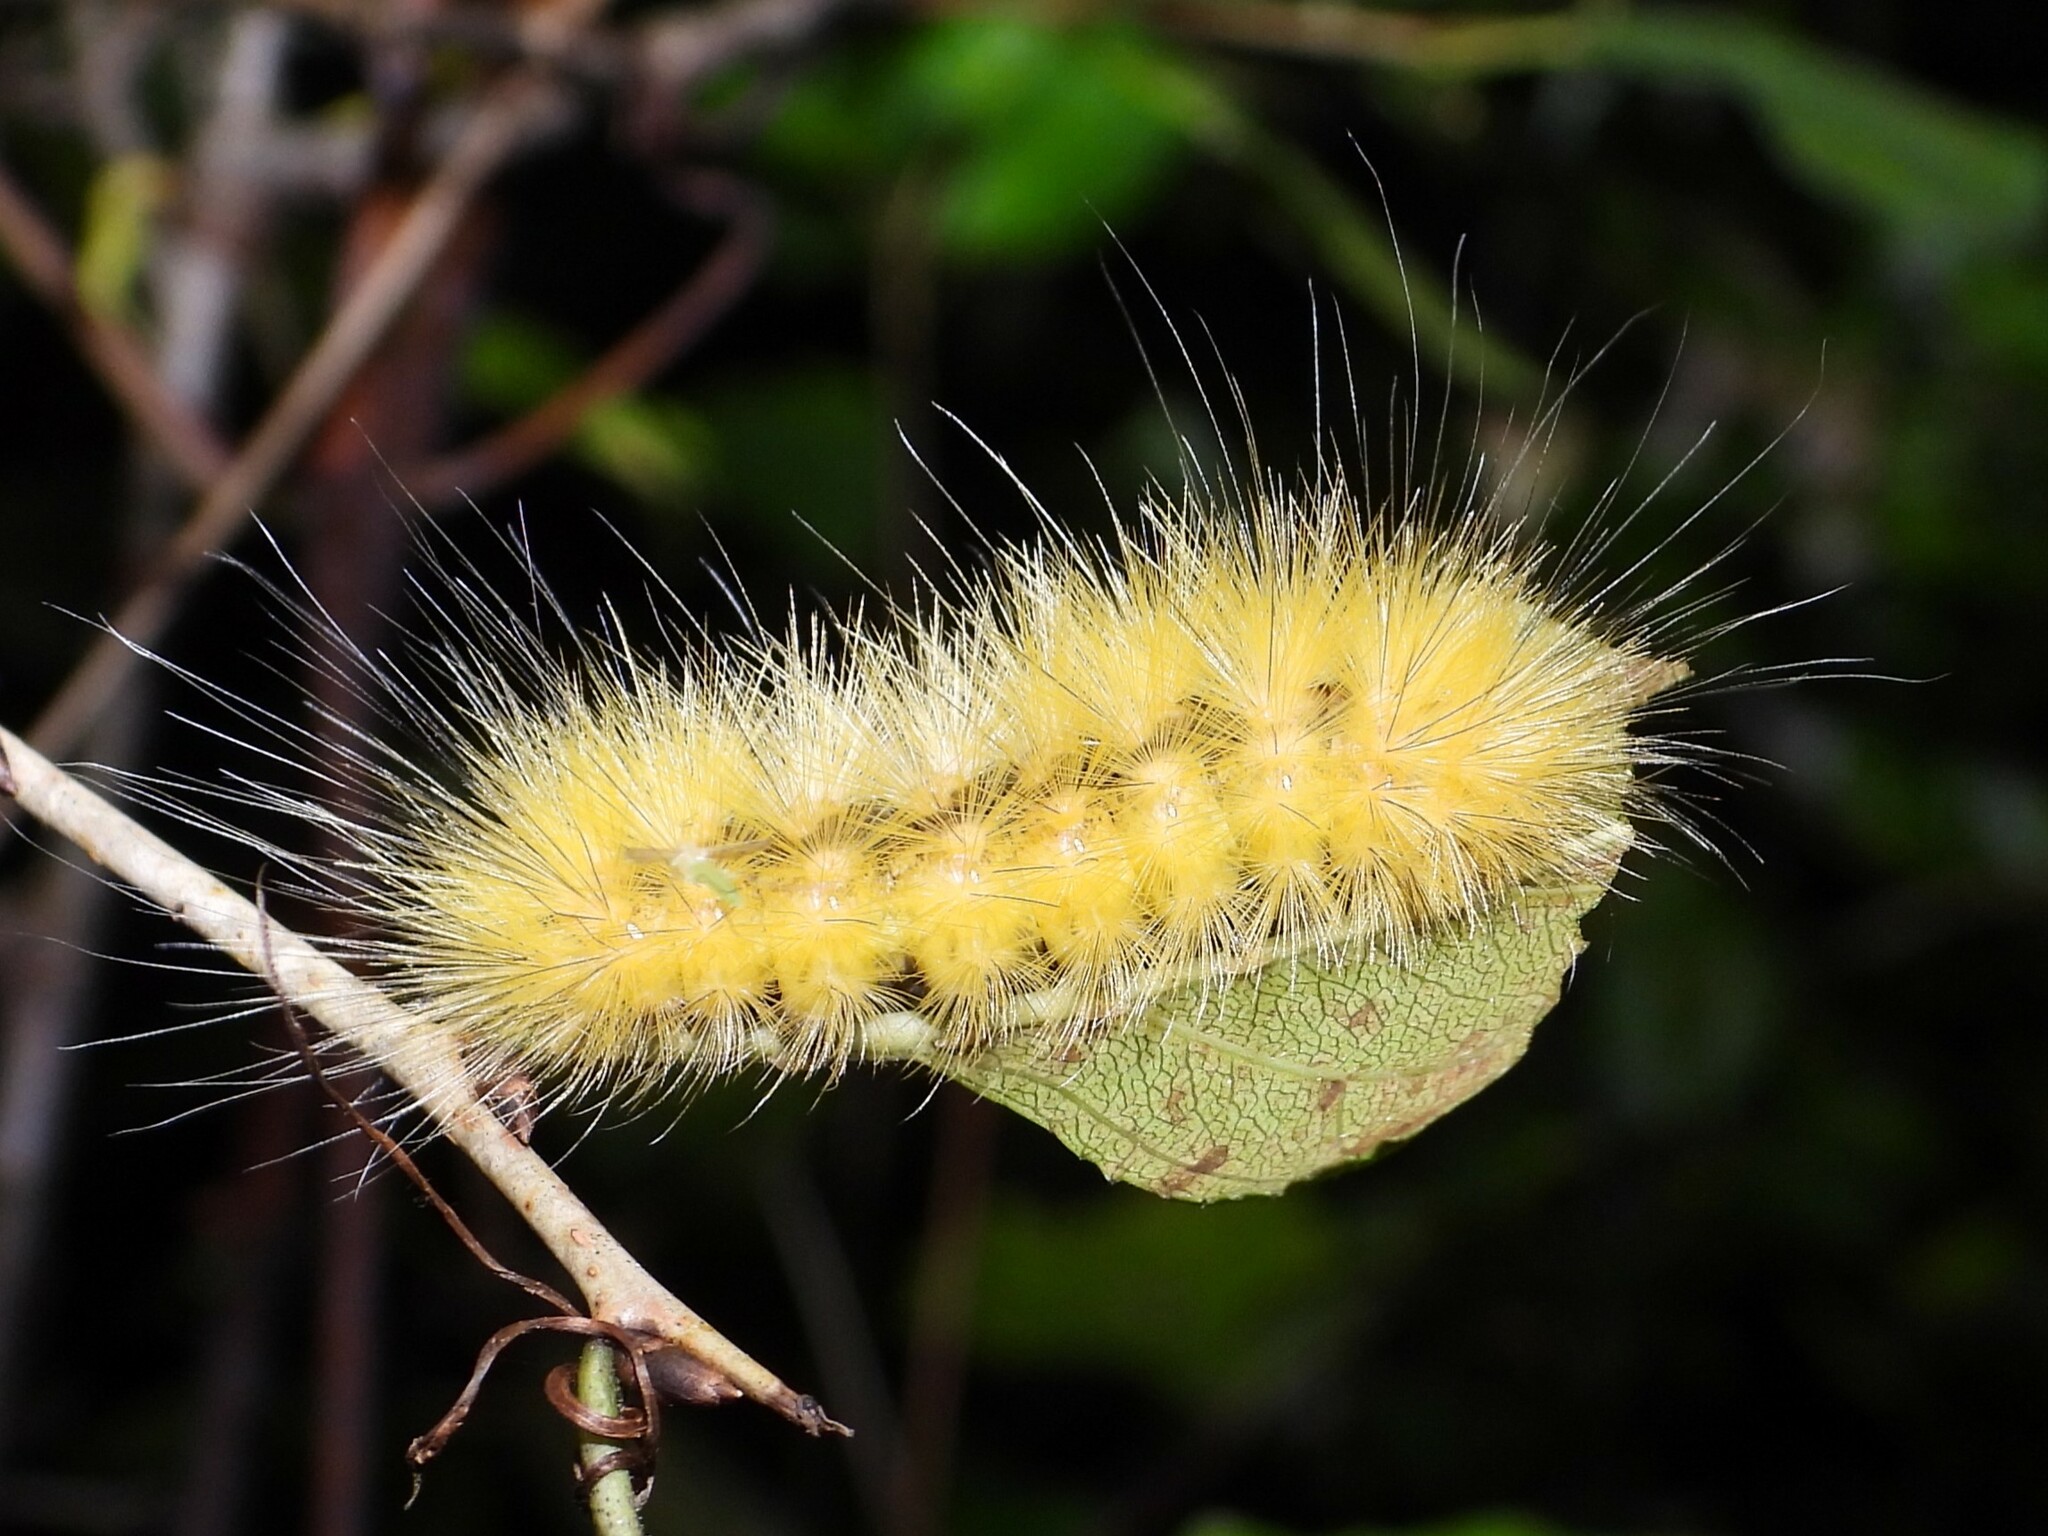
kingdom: Animalia
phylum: Arthropoda
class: Insecta
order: Lepidoptera
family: Erebidae
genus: Spilosoma
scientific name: Spilosoma virginica
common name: Virginia tiger moth
